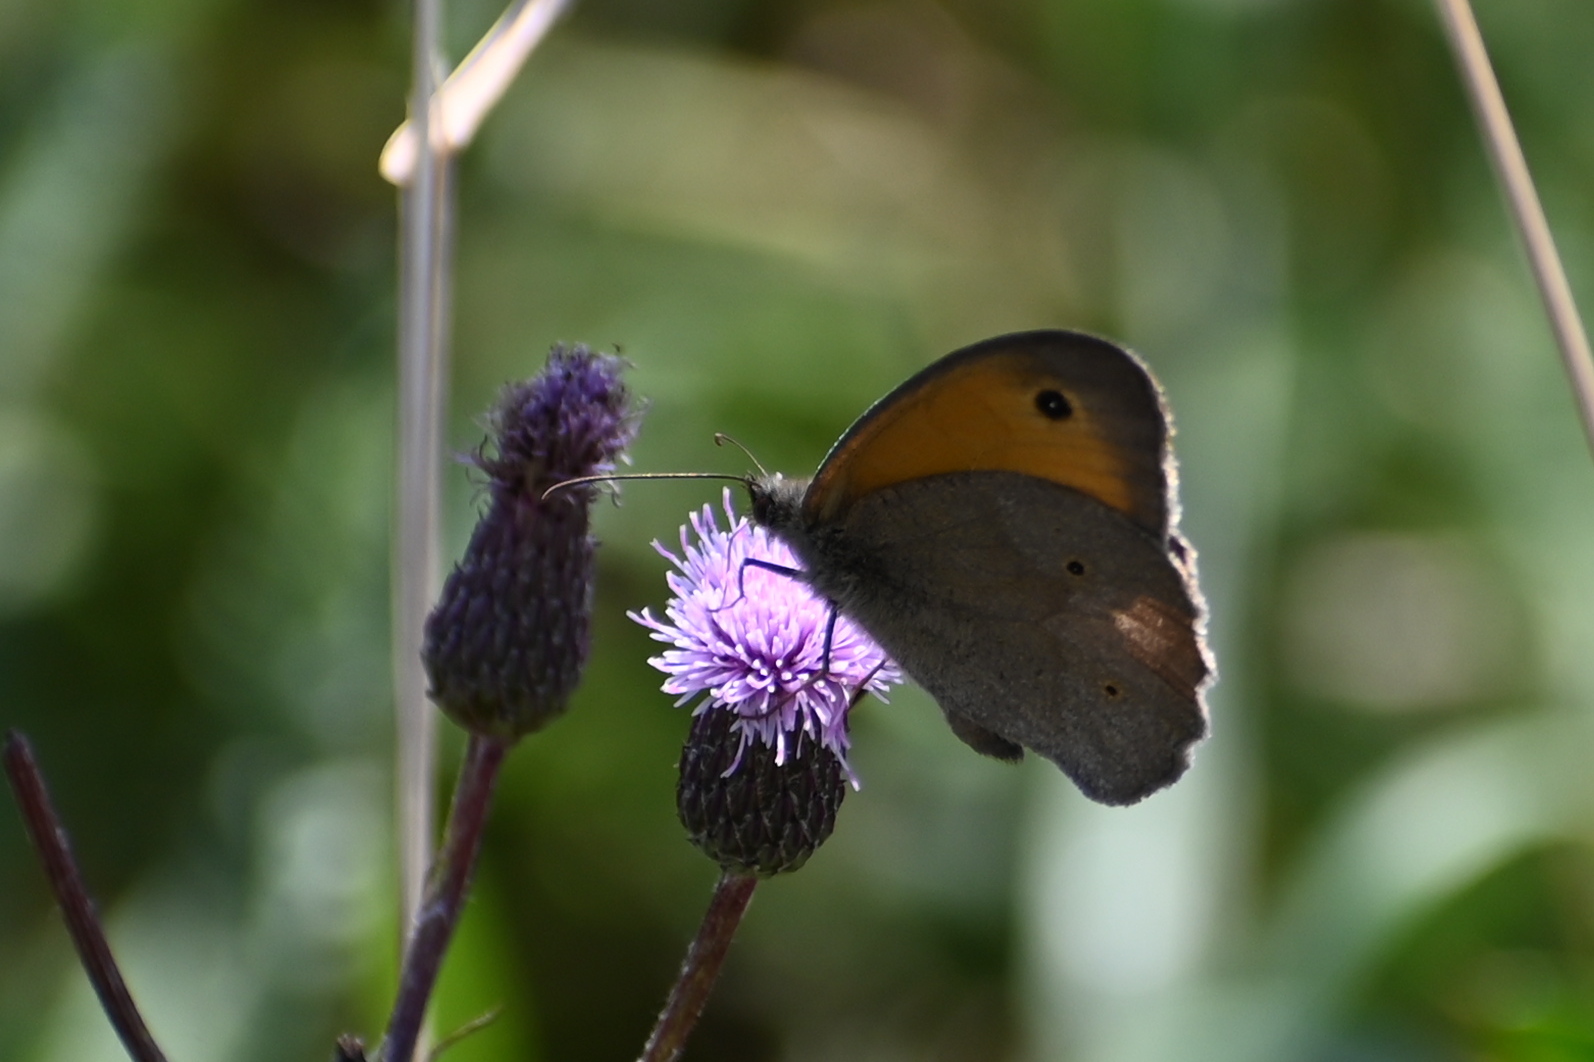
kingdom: Animalia
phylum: Arthropoda
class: Insecta
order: Lepidoptera
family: Nymphalidae
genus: Maniola
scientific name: Maniola jurtina
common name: Meadow brown
